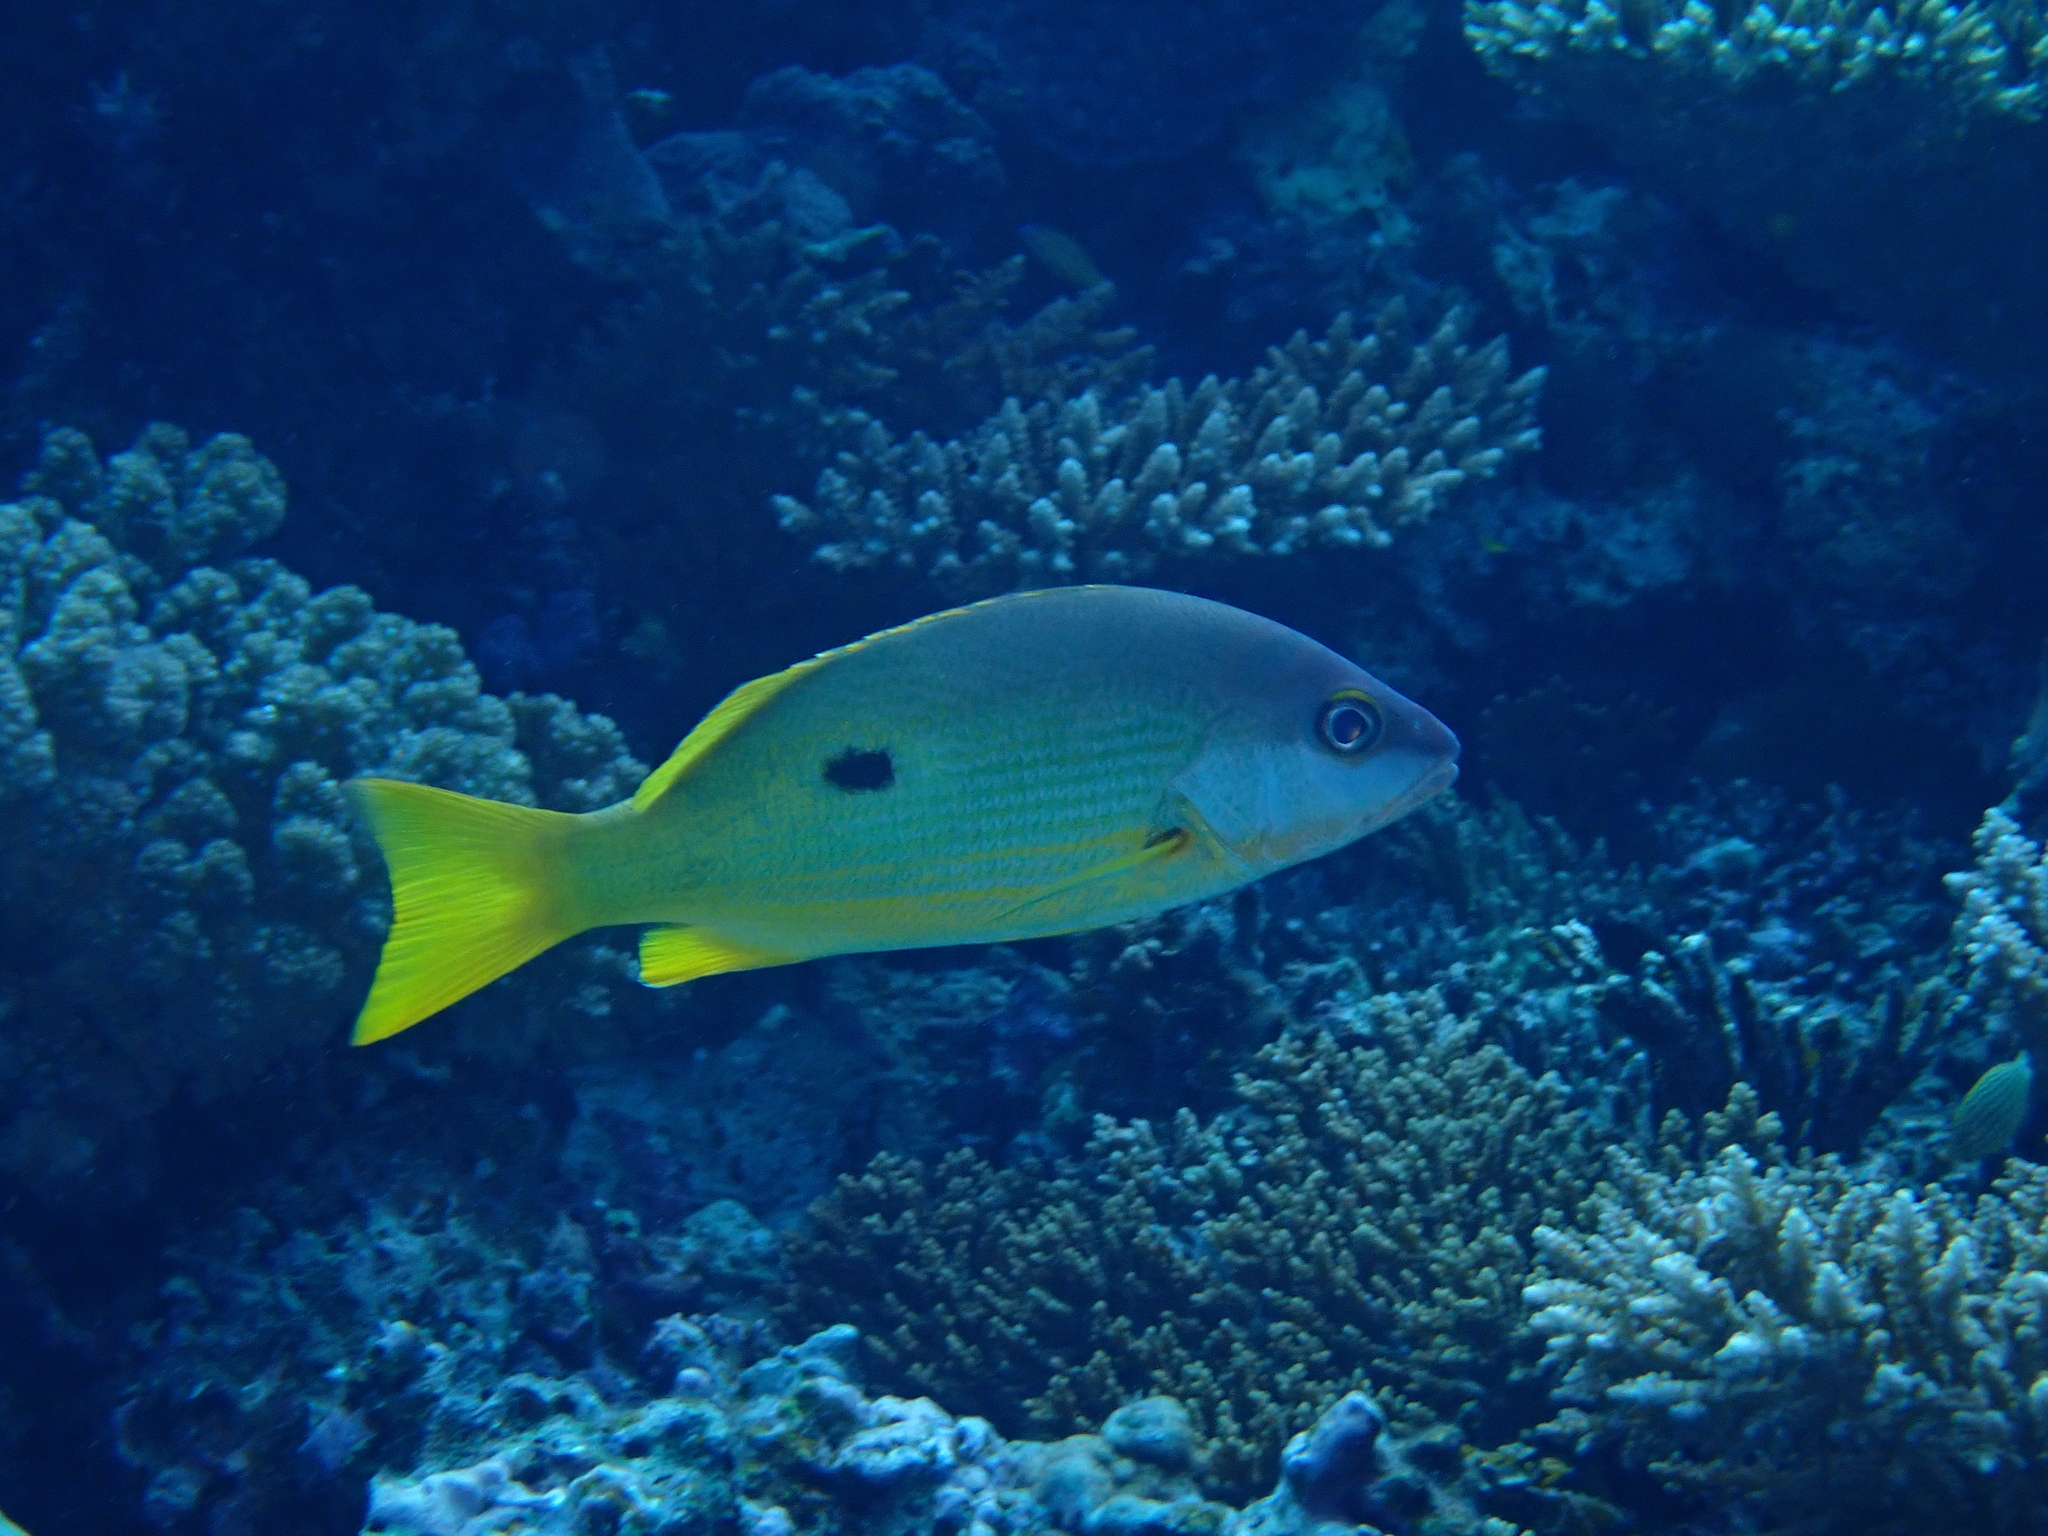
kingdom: Animalia
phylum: Chordata
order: Perciformes
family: Lutjanidae
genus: Lutjanus
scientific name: Lutjanus fulviflamma
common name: Blackspot snapper
